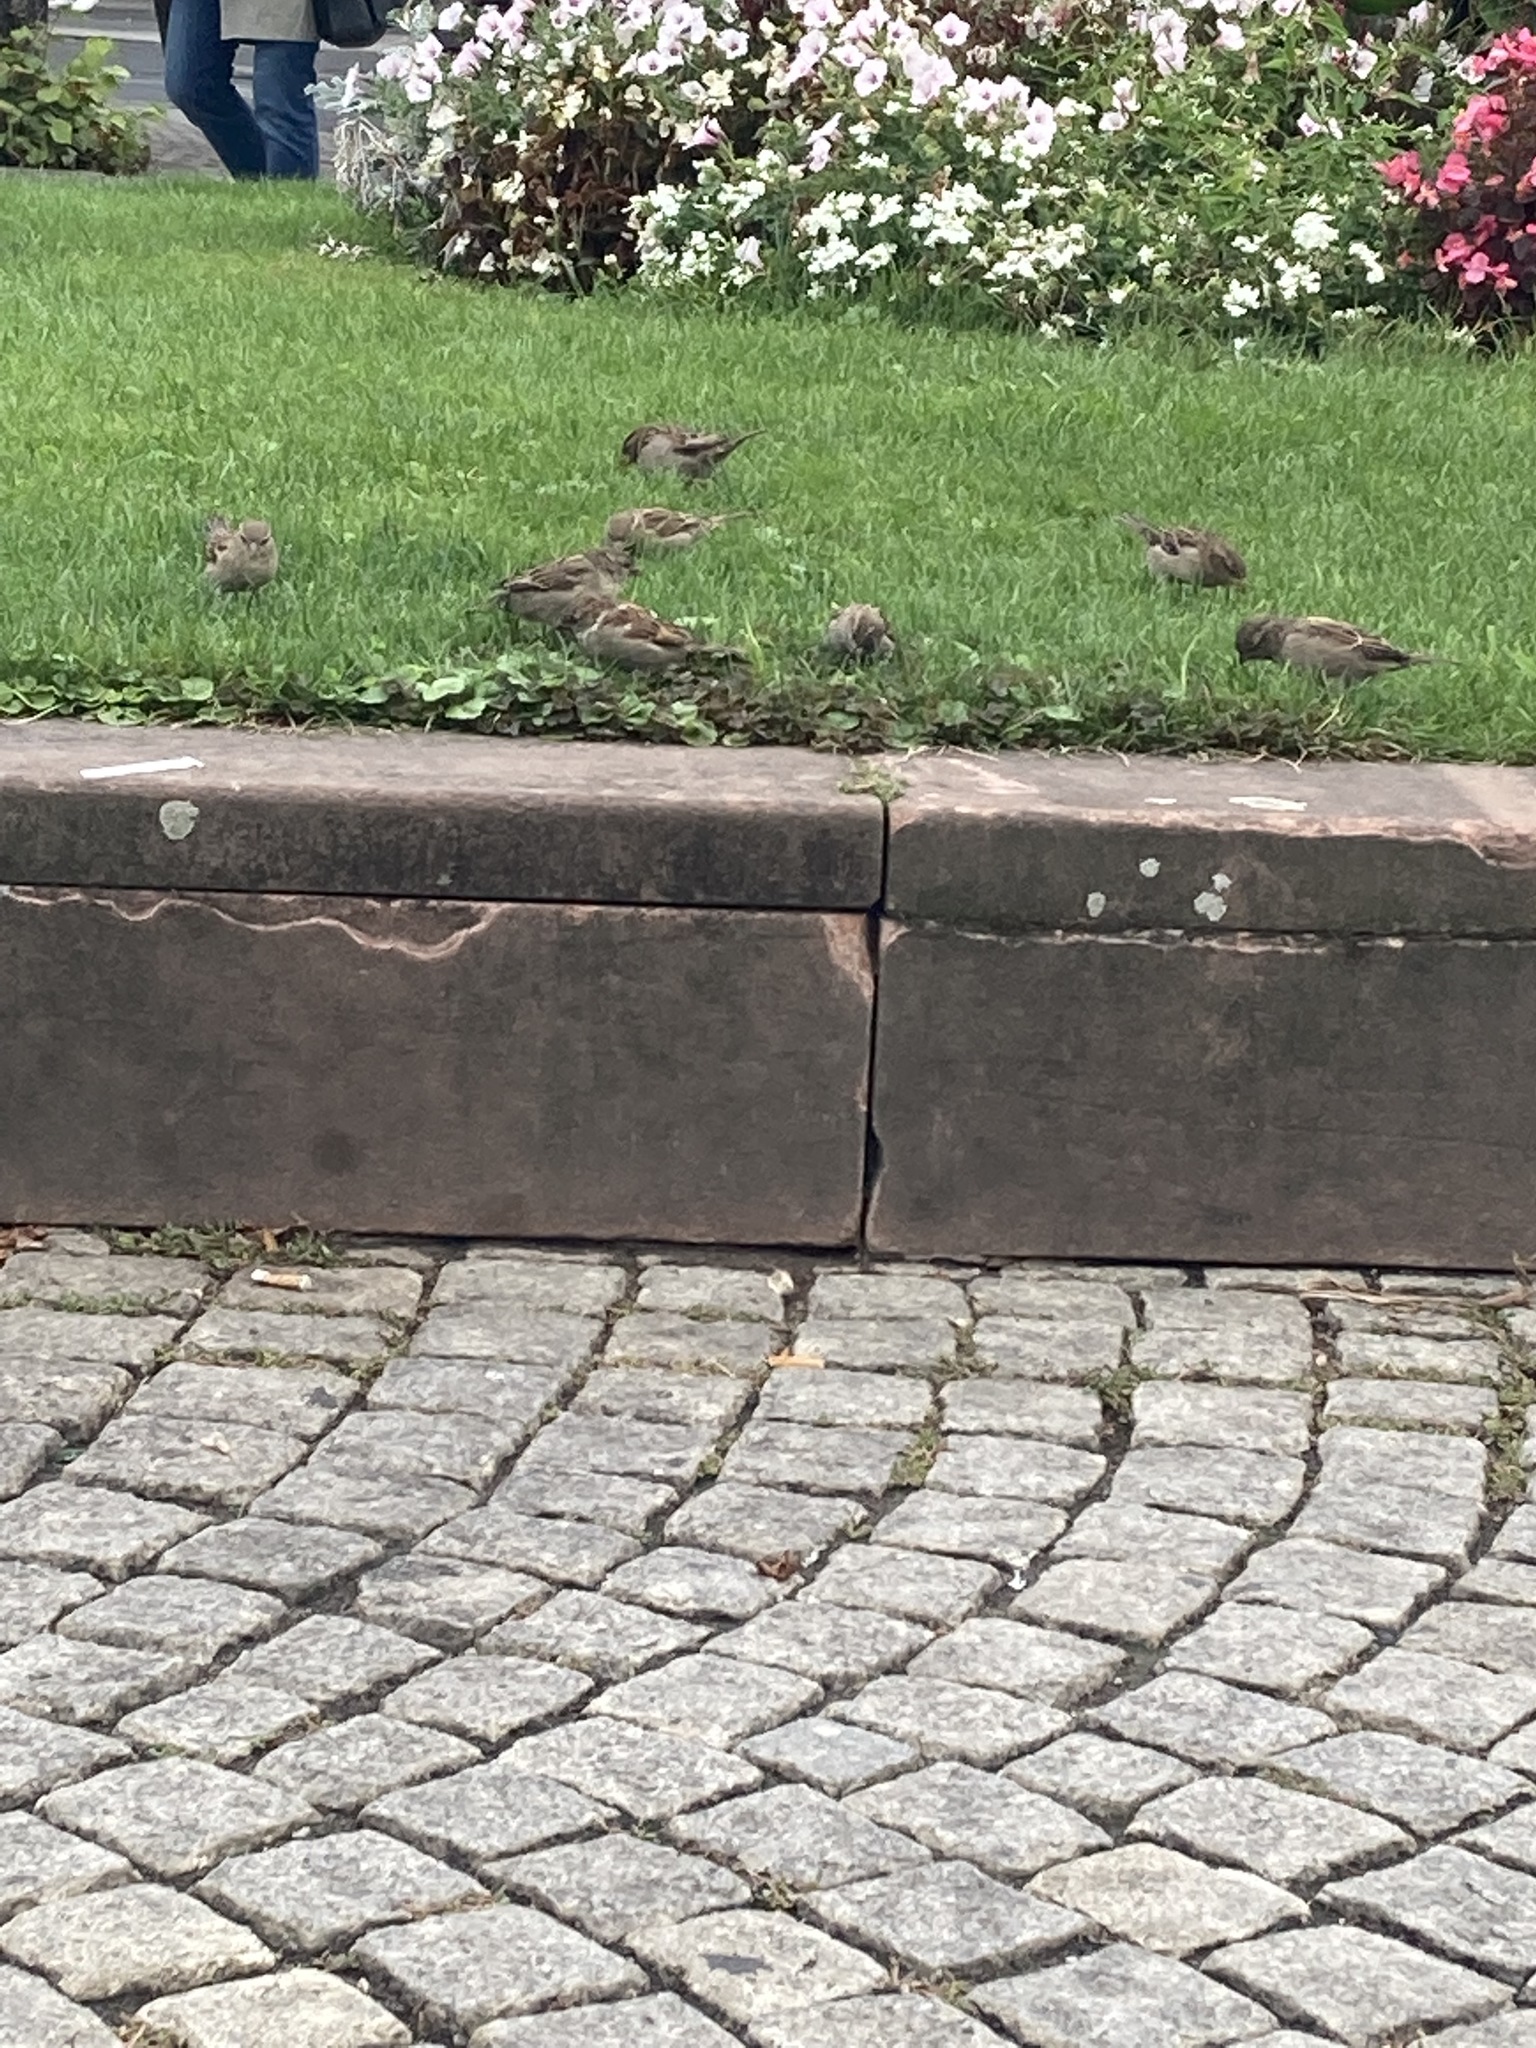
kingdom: Animalia
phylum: Chordata
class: Aves
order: Passeriformes
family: Passeridae
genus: Passer
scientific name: Passer domesticus
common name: House sparrow
